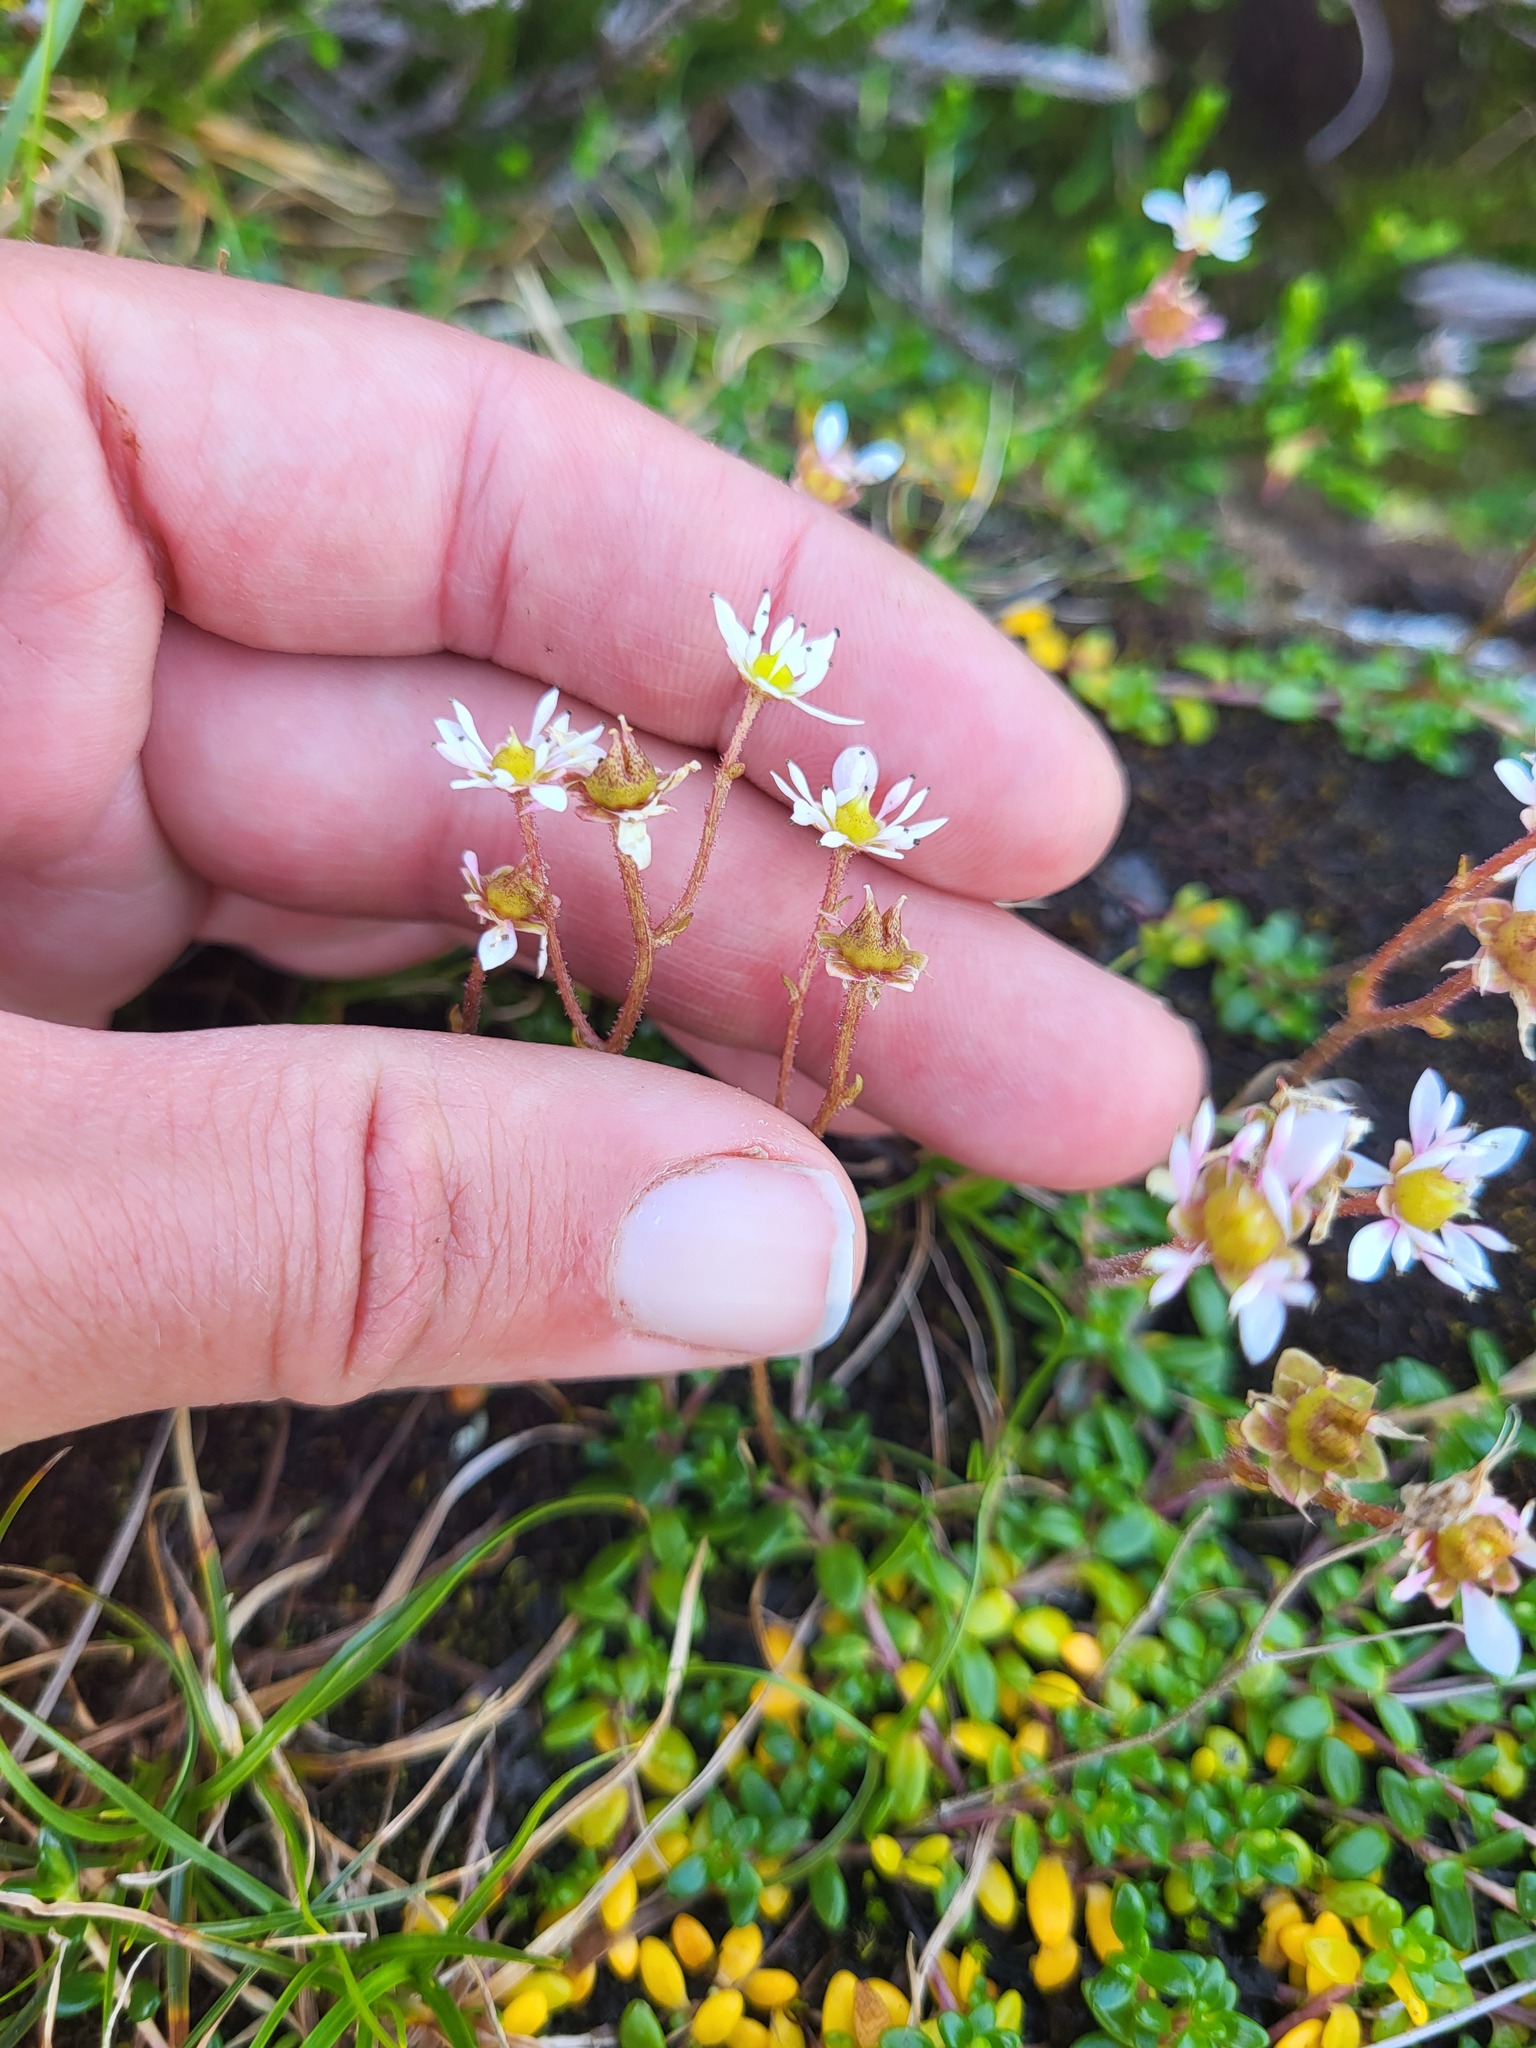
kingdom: Plantae
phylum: Tracheophyta
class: Magnoliopsida
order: Saxifragales
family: Saxifragaceae
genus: Micranthes
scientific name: Micranthes tolmiei
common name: Tolmie's saxifrage
